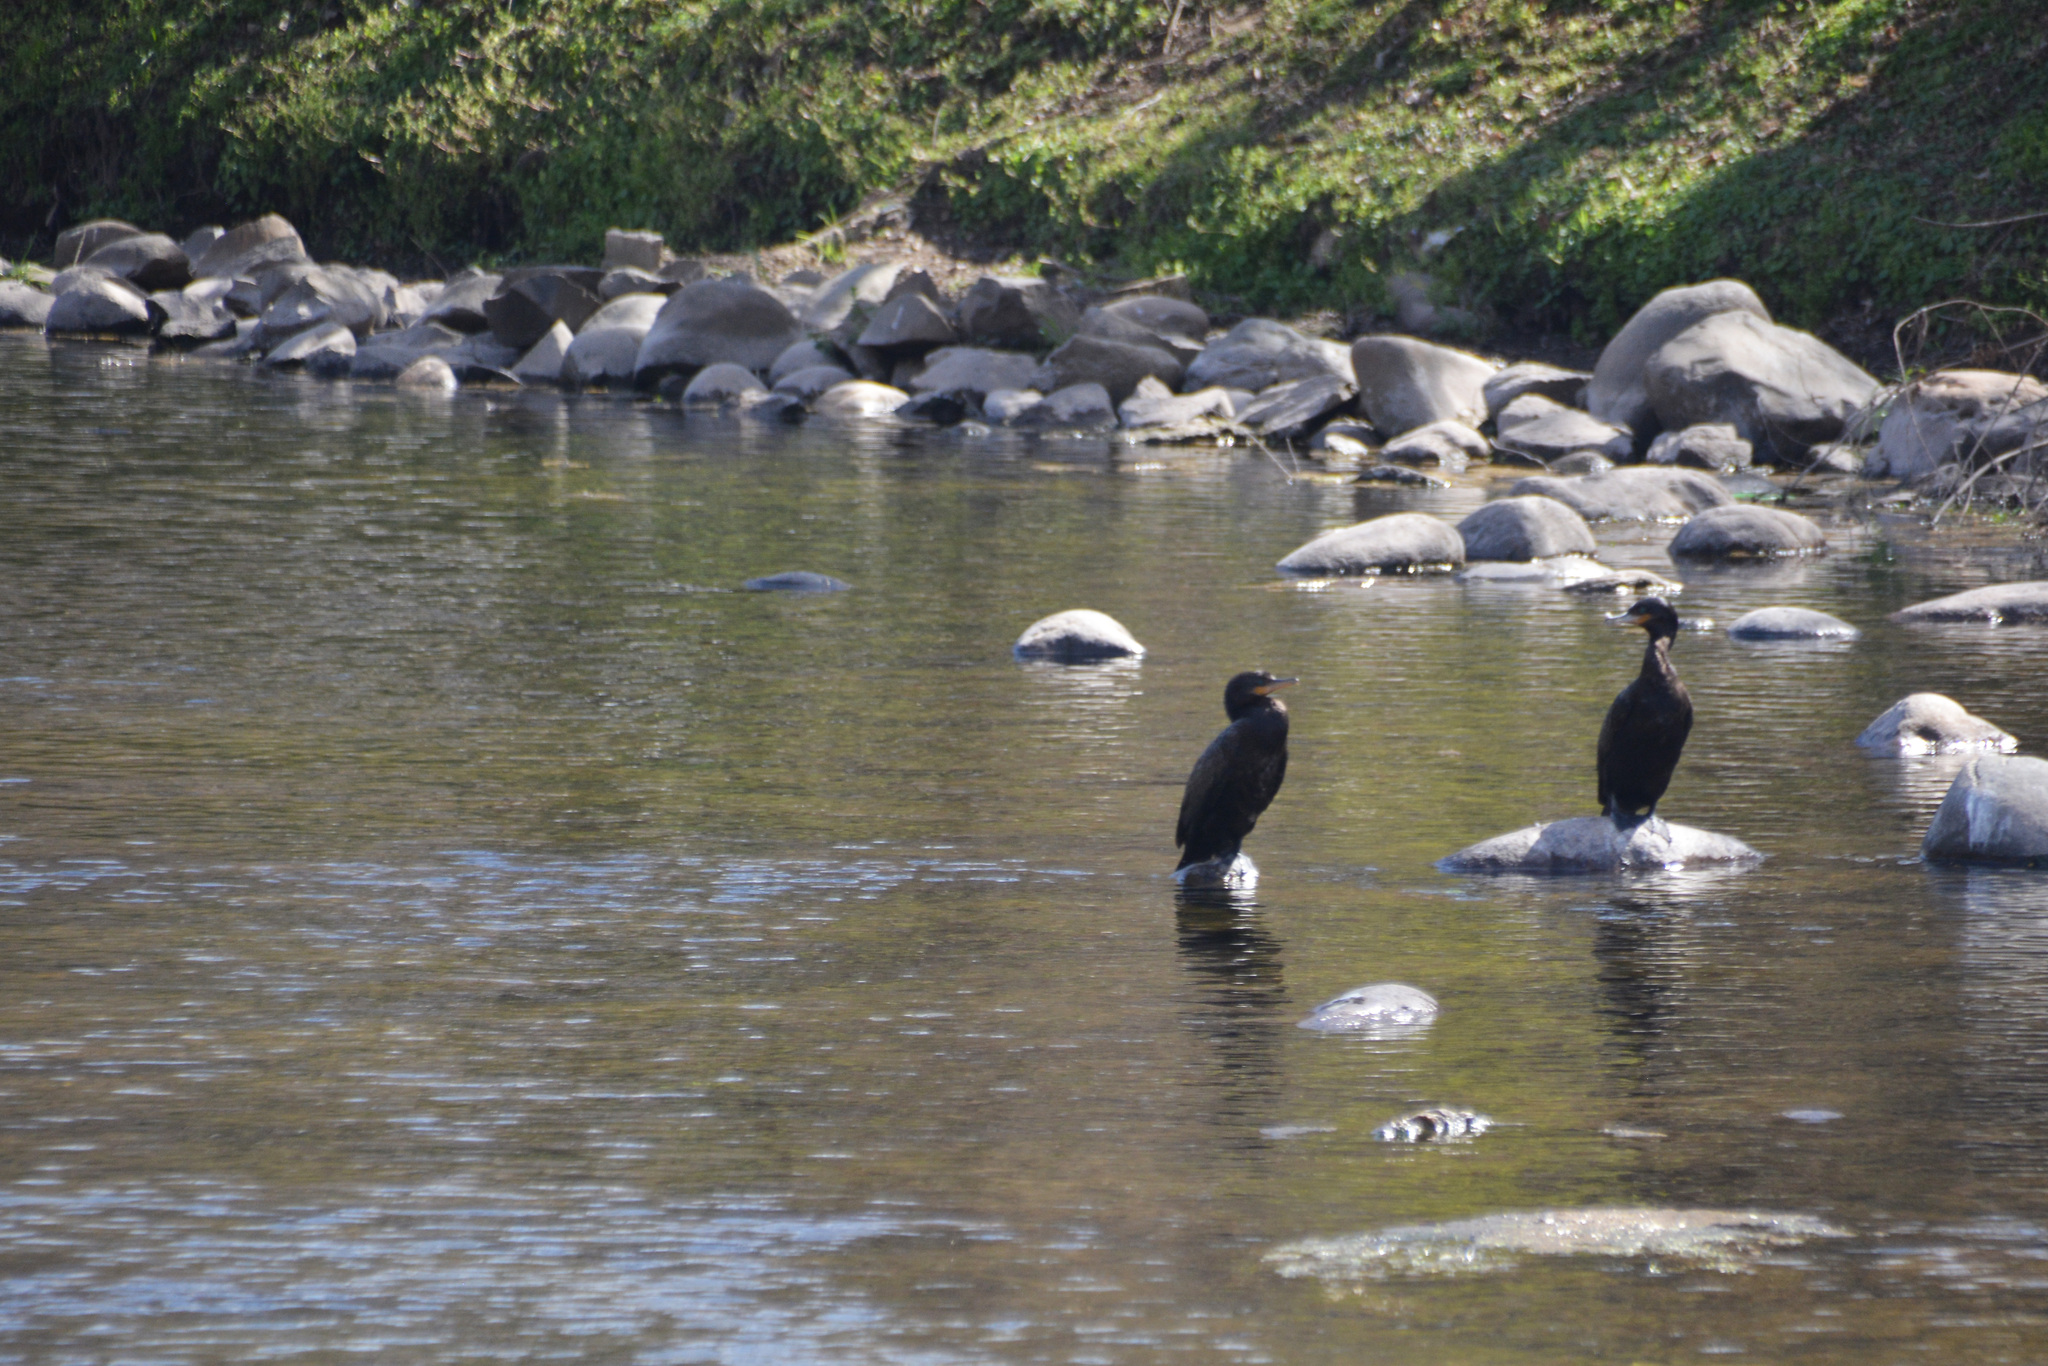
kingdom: Animalia
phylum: Chordata
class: Aves
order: Suliformes
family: Phalacrocoracidae
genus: Phalacrocorax
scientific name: Phalacrocorax brasilianus
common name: Neotropic cormorant
